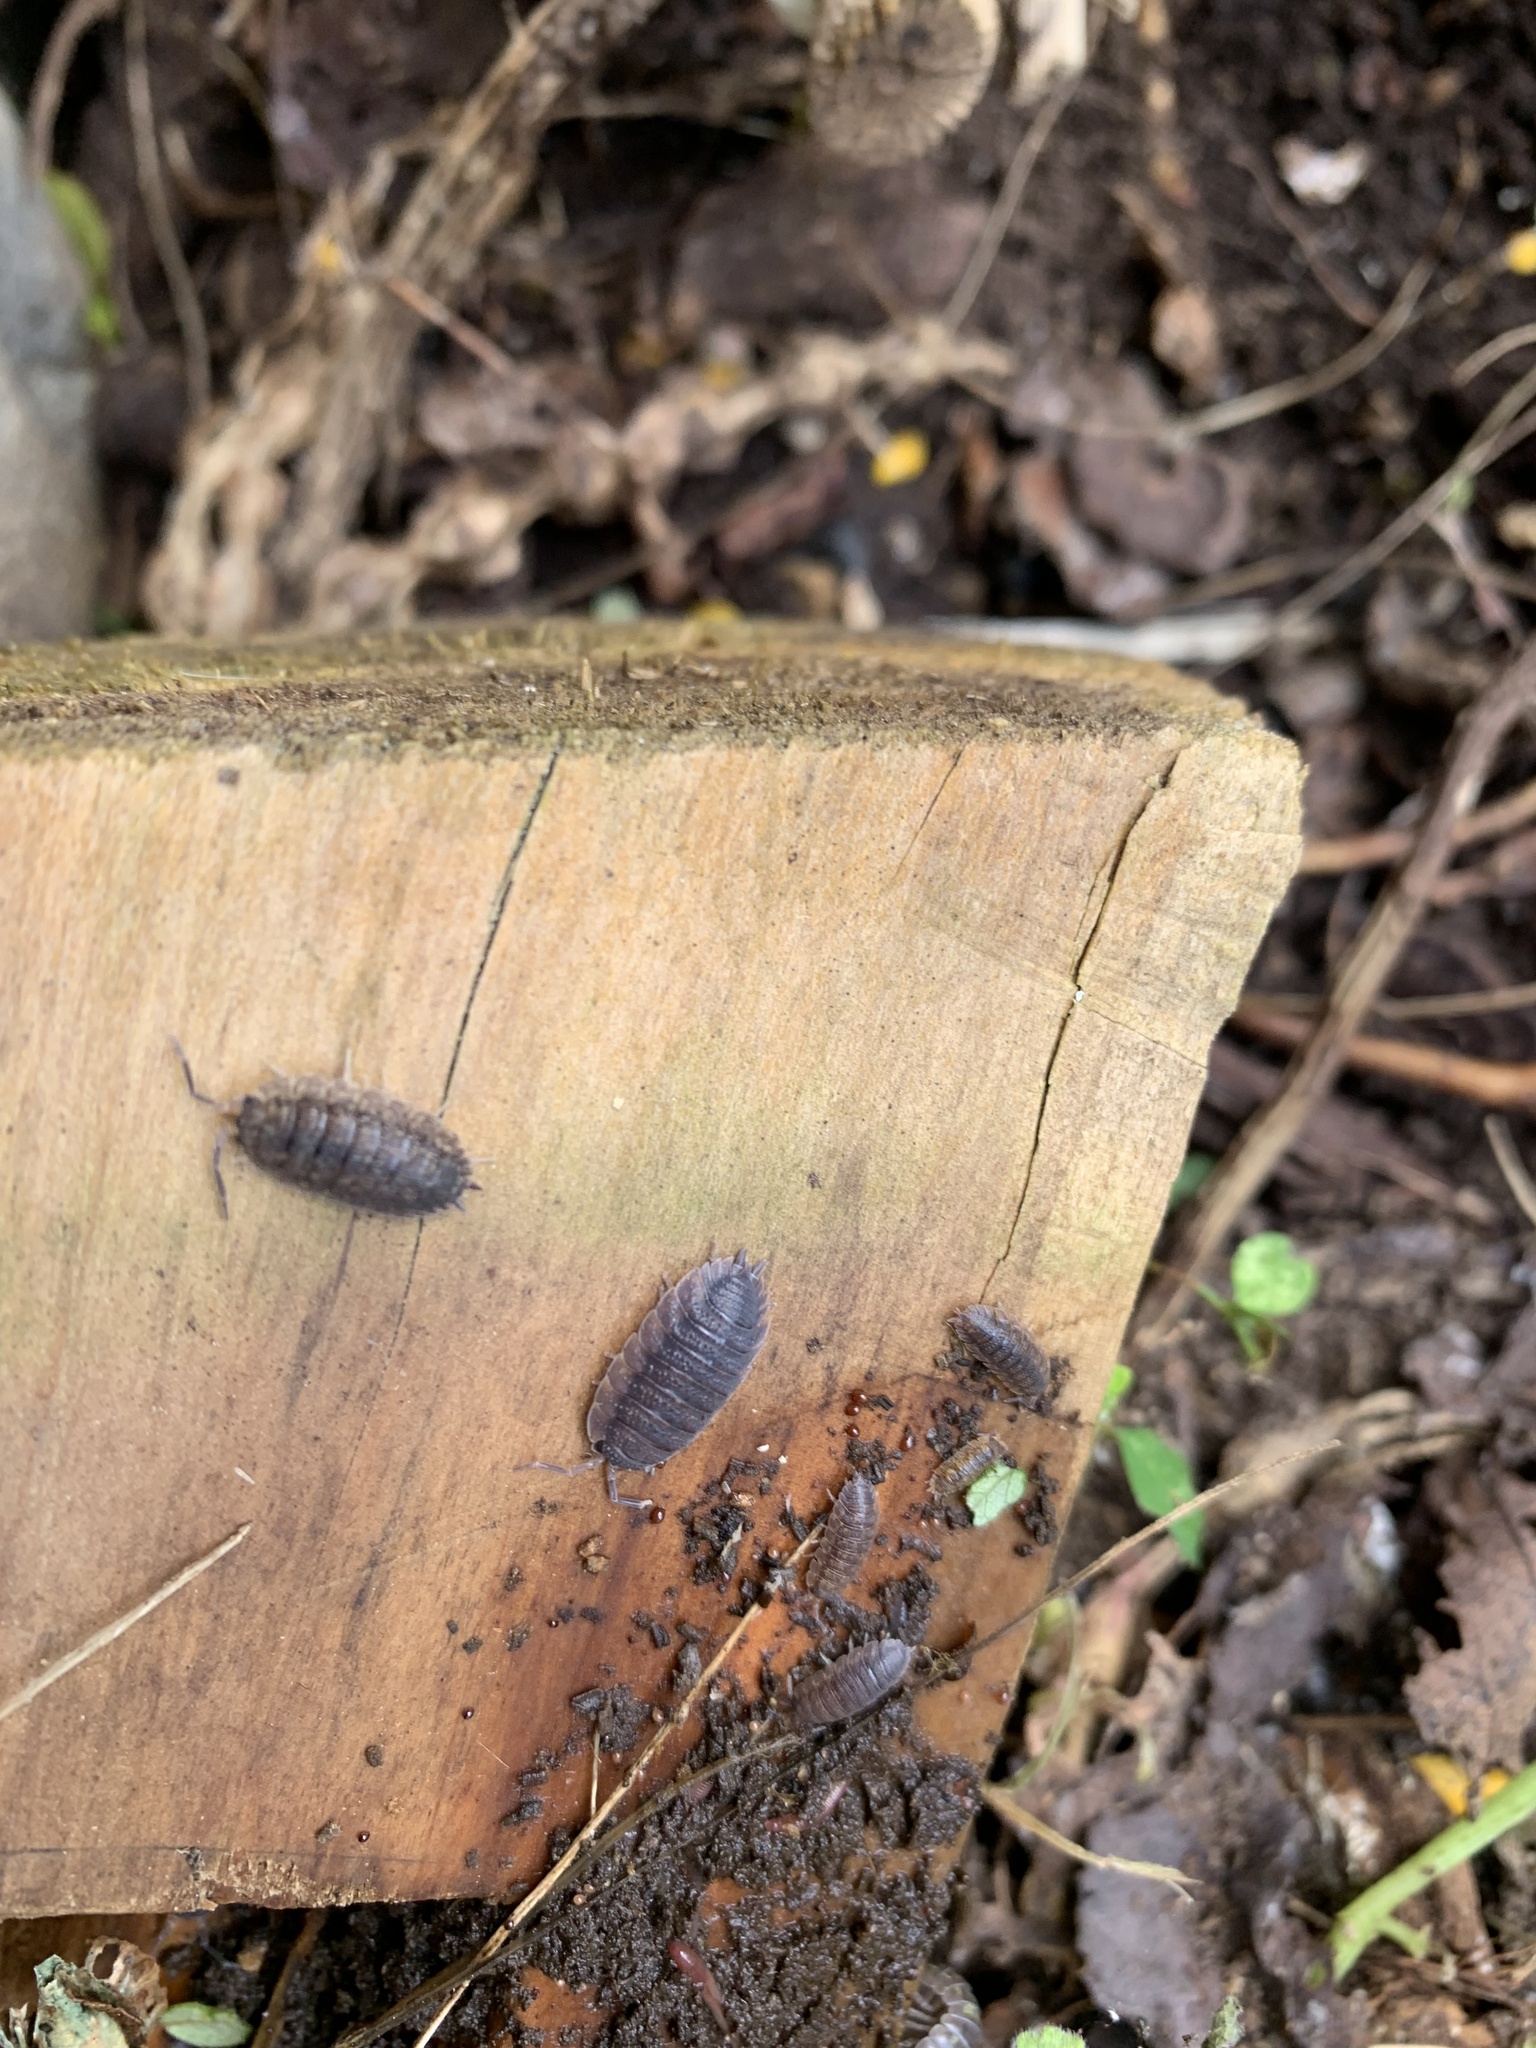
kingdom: Animalia
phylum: Arthropoda
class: Malacostraca
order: Isopoda
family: Porcellionidae
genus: Porcellio
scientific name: Porcellio scaber
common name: Common rough woodlouse
